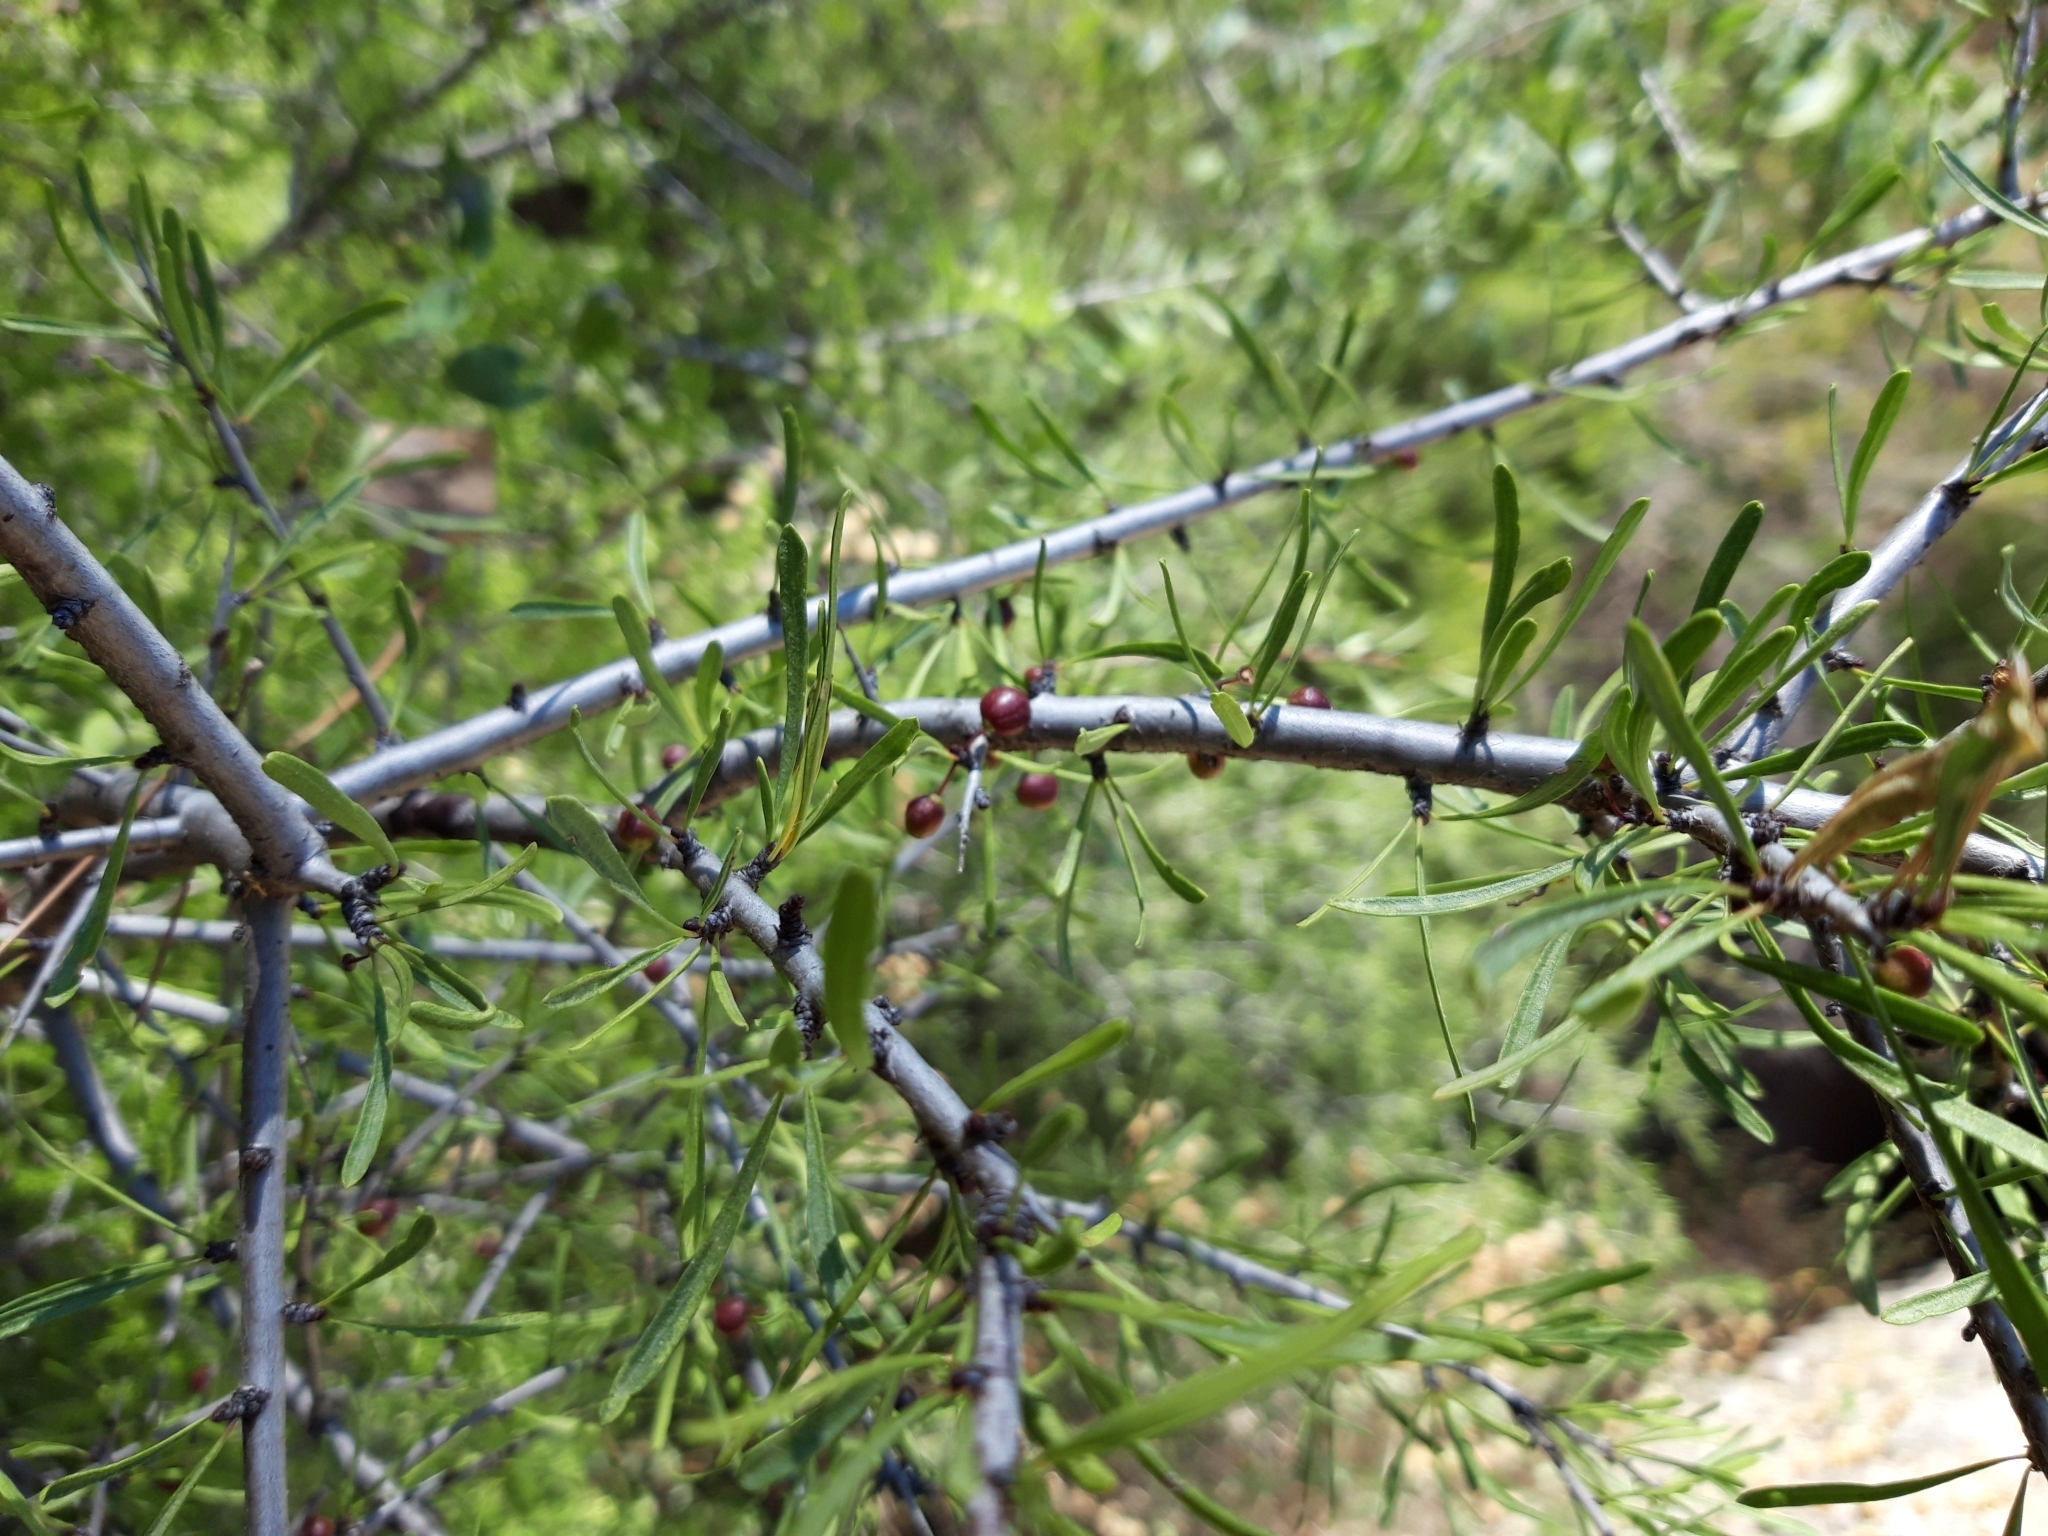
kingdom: Plantae
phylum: Tracheophyta
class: Magnoliopsida
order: Rosales
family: Rhamnaceae
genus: Rhamnus
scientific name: Rhamnus lycioides
